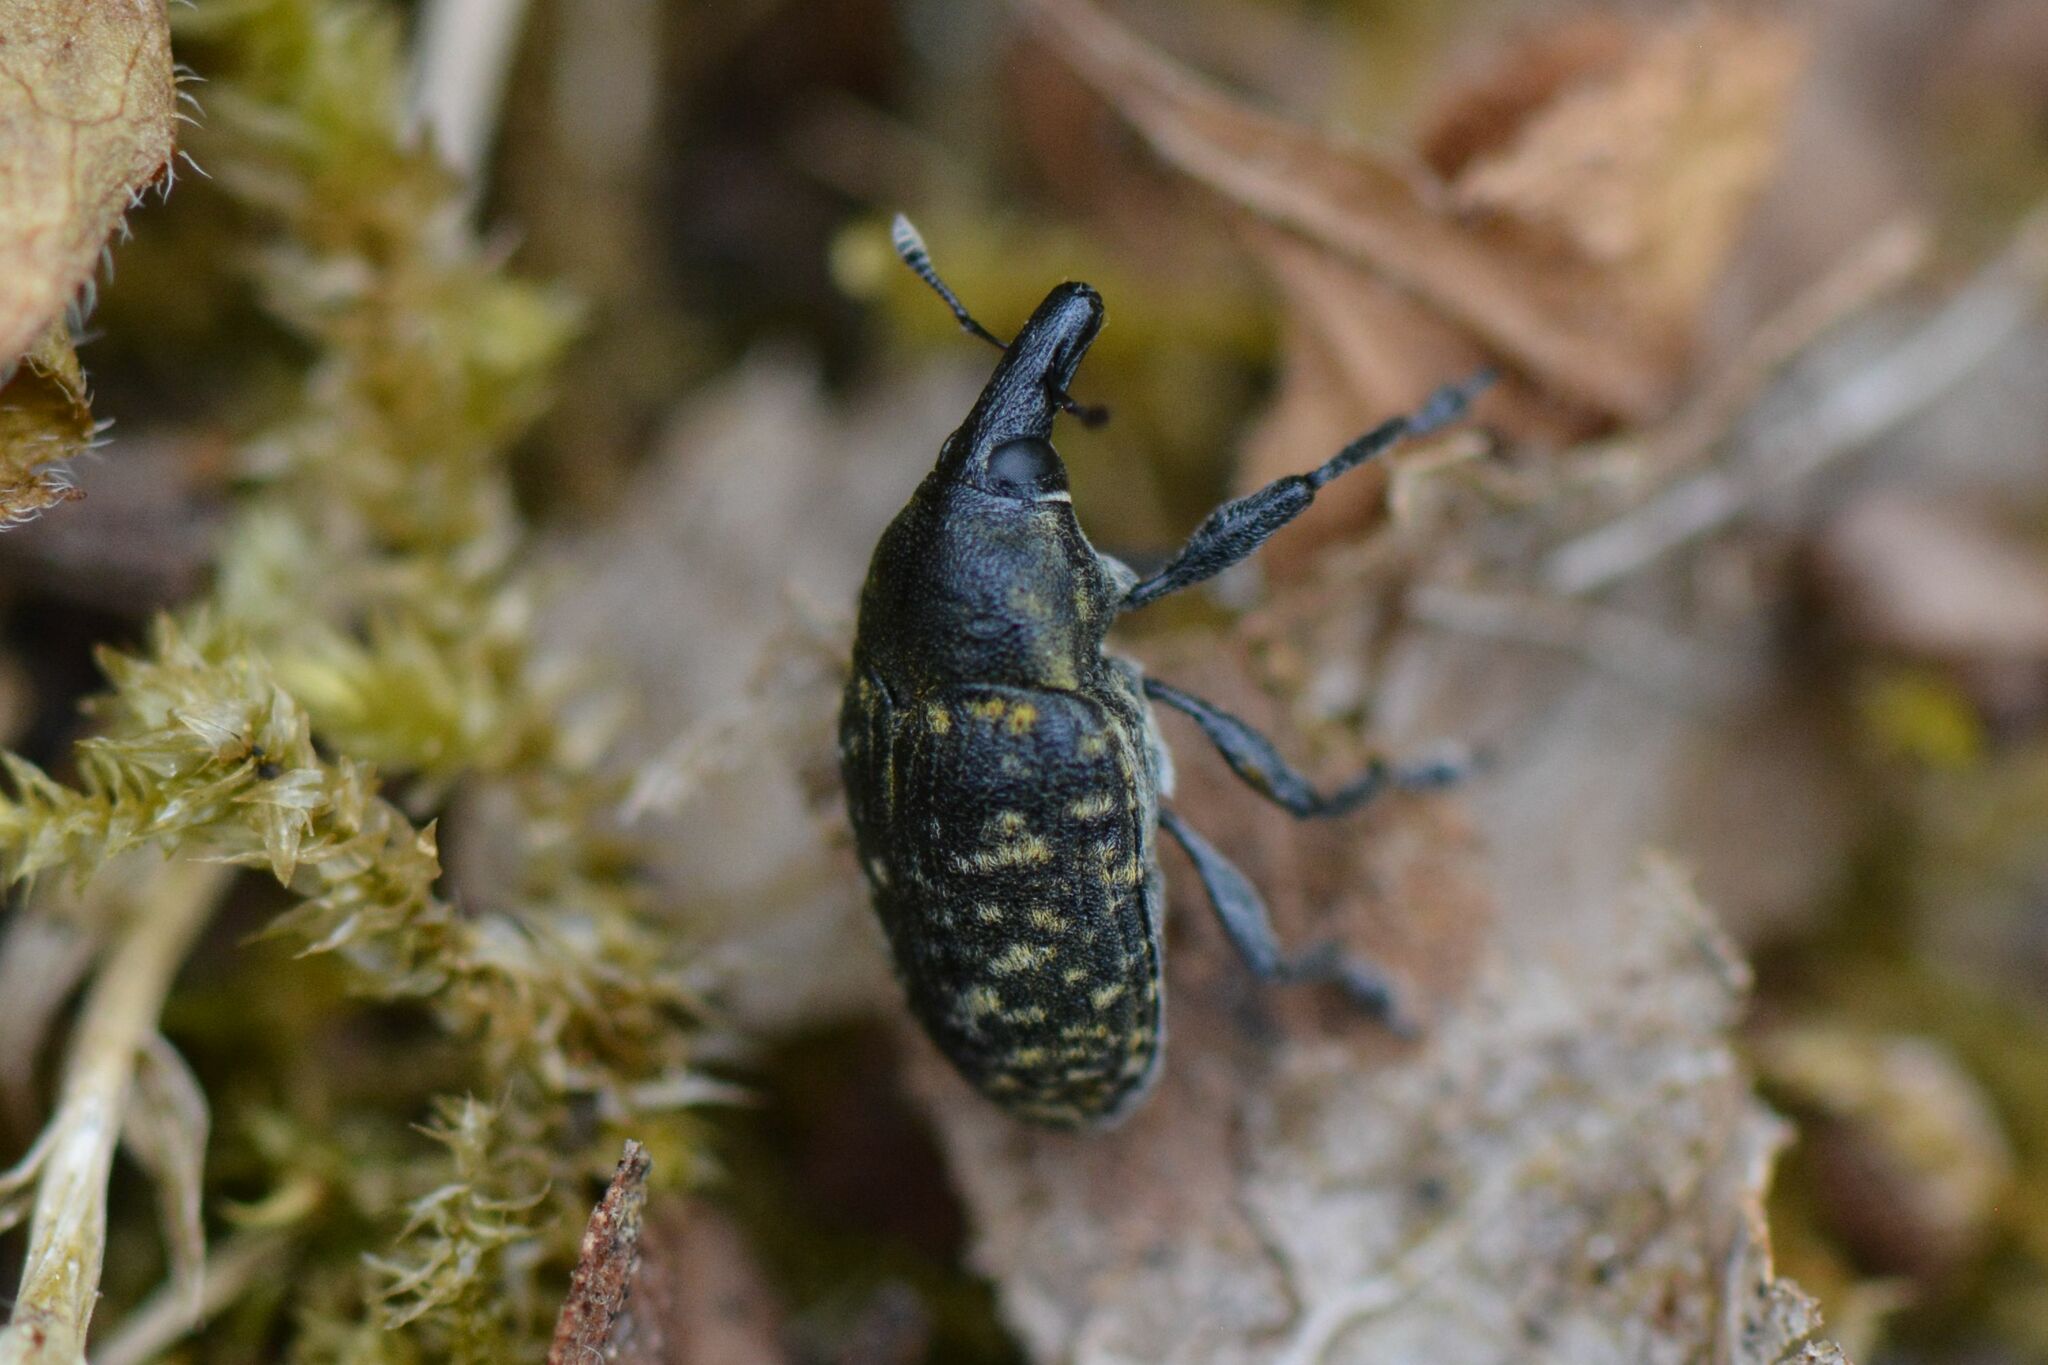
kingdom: Animalia
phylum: Arthropoda
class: Insecta
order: Coleoptera
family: Curculionidae
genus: Larinus
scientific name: Larinus turbinatus
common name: Weevil
